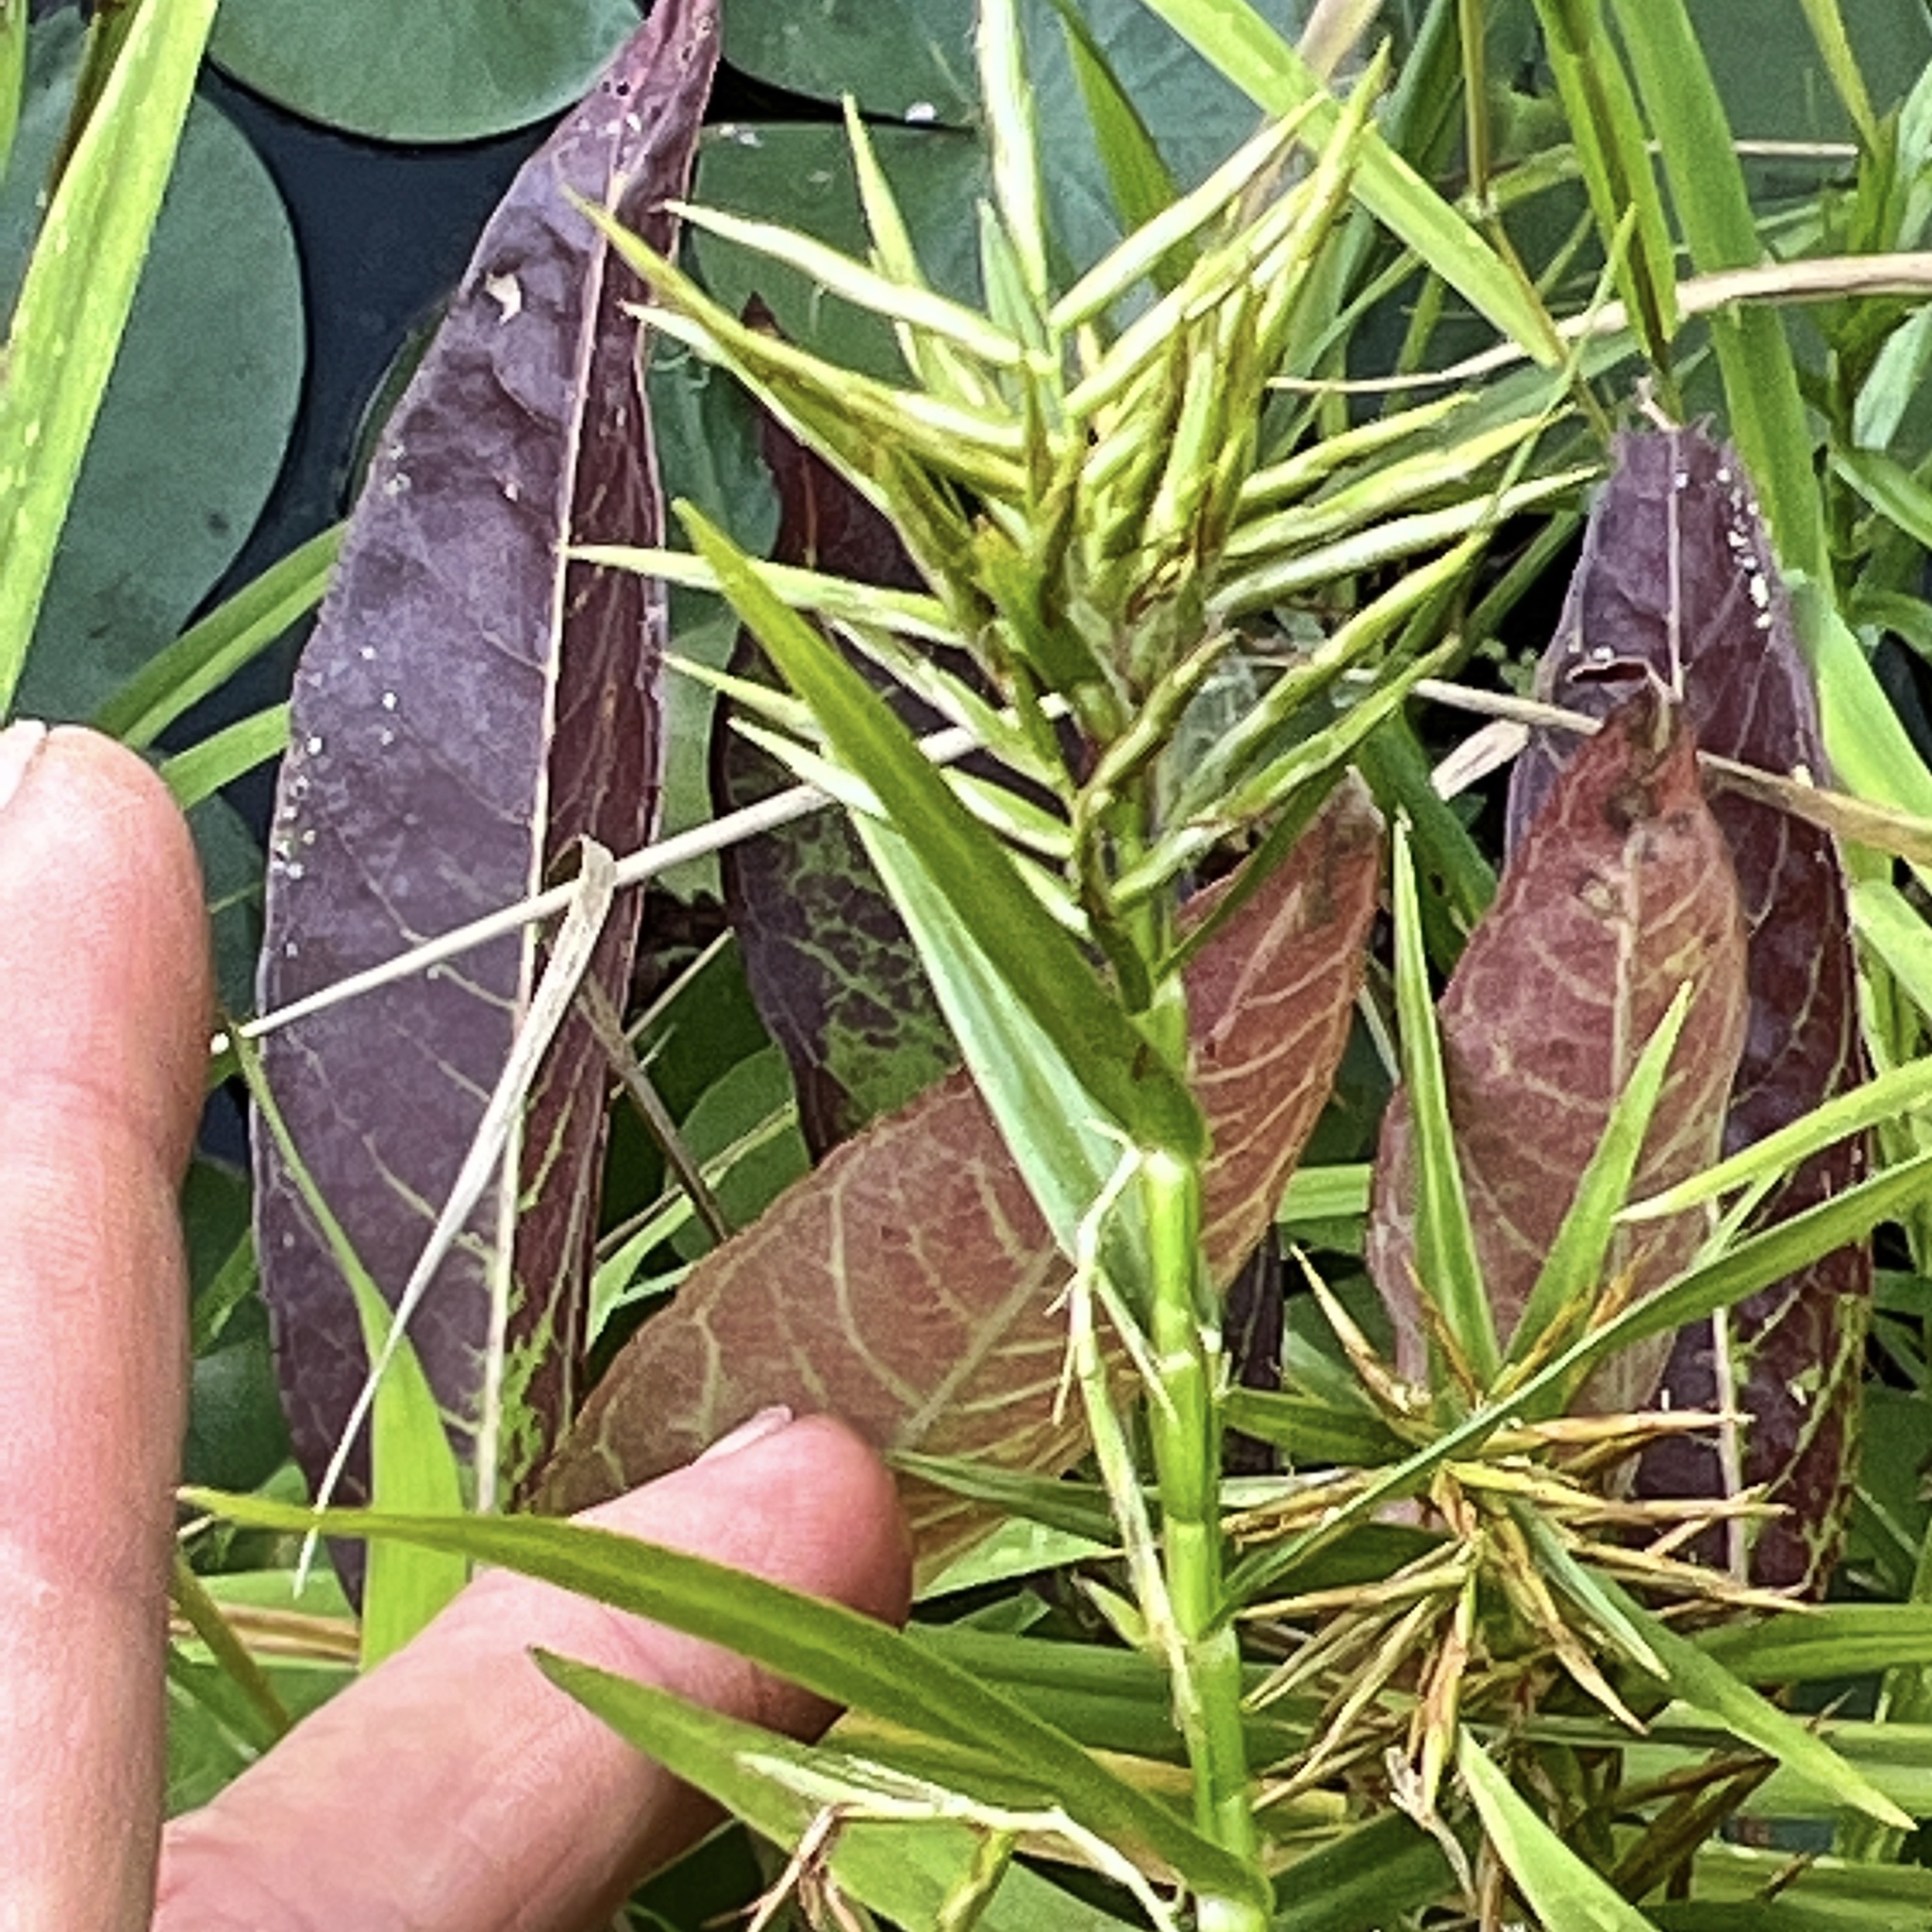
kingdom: Plantae
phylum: Tracheophyta
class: Liliopsida
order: Poales
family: Cyperaceae
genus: Dulichium
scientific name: Dulichium arundinaceum
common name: Three-way sedge
